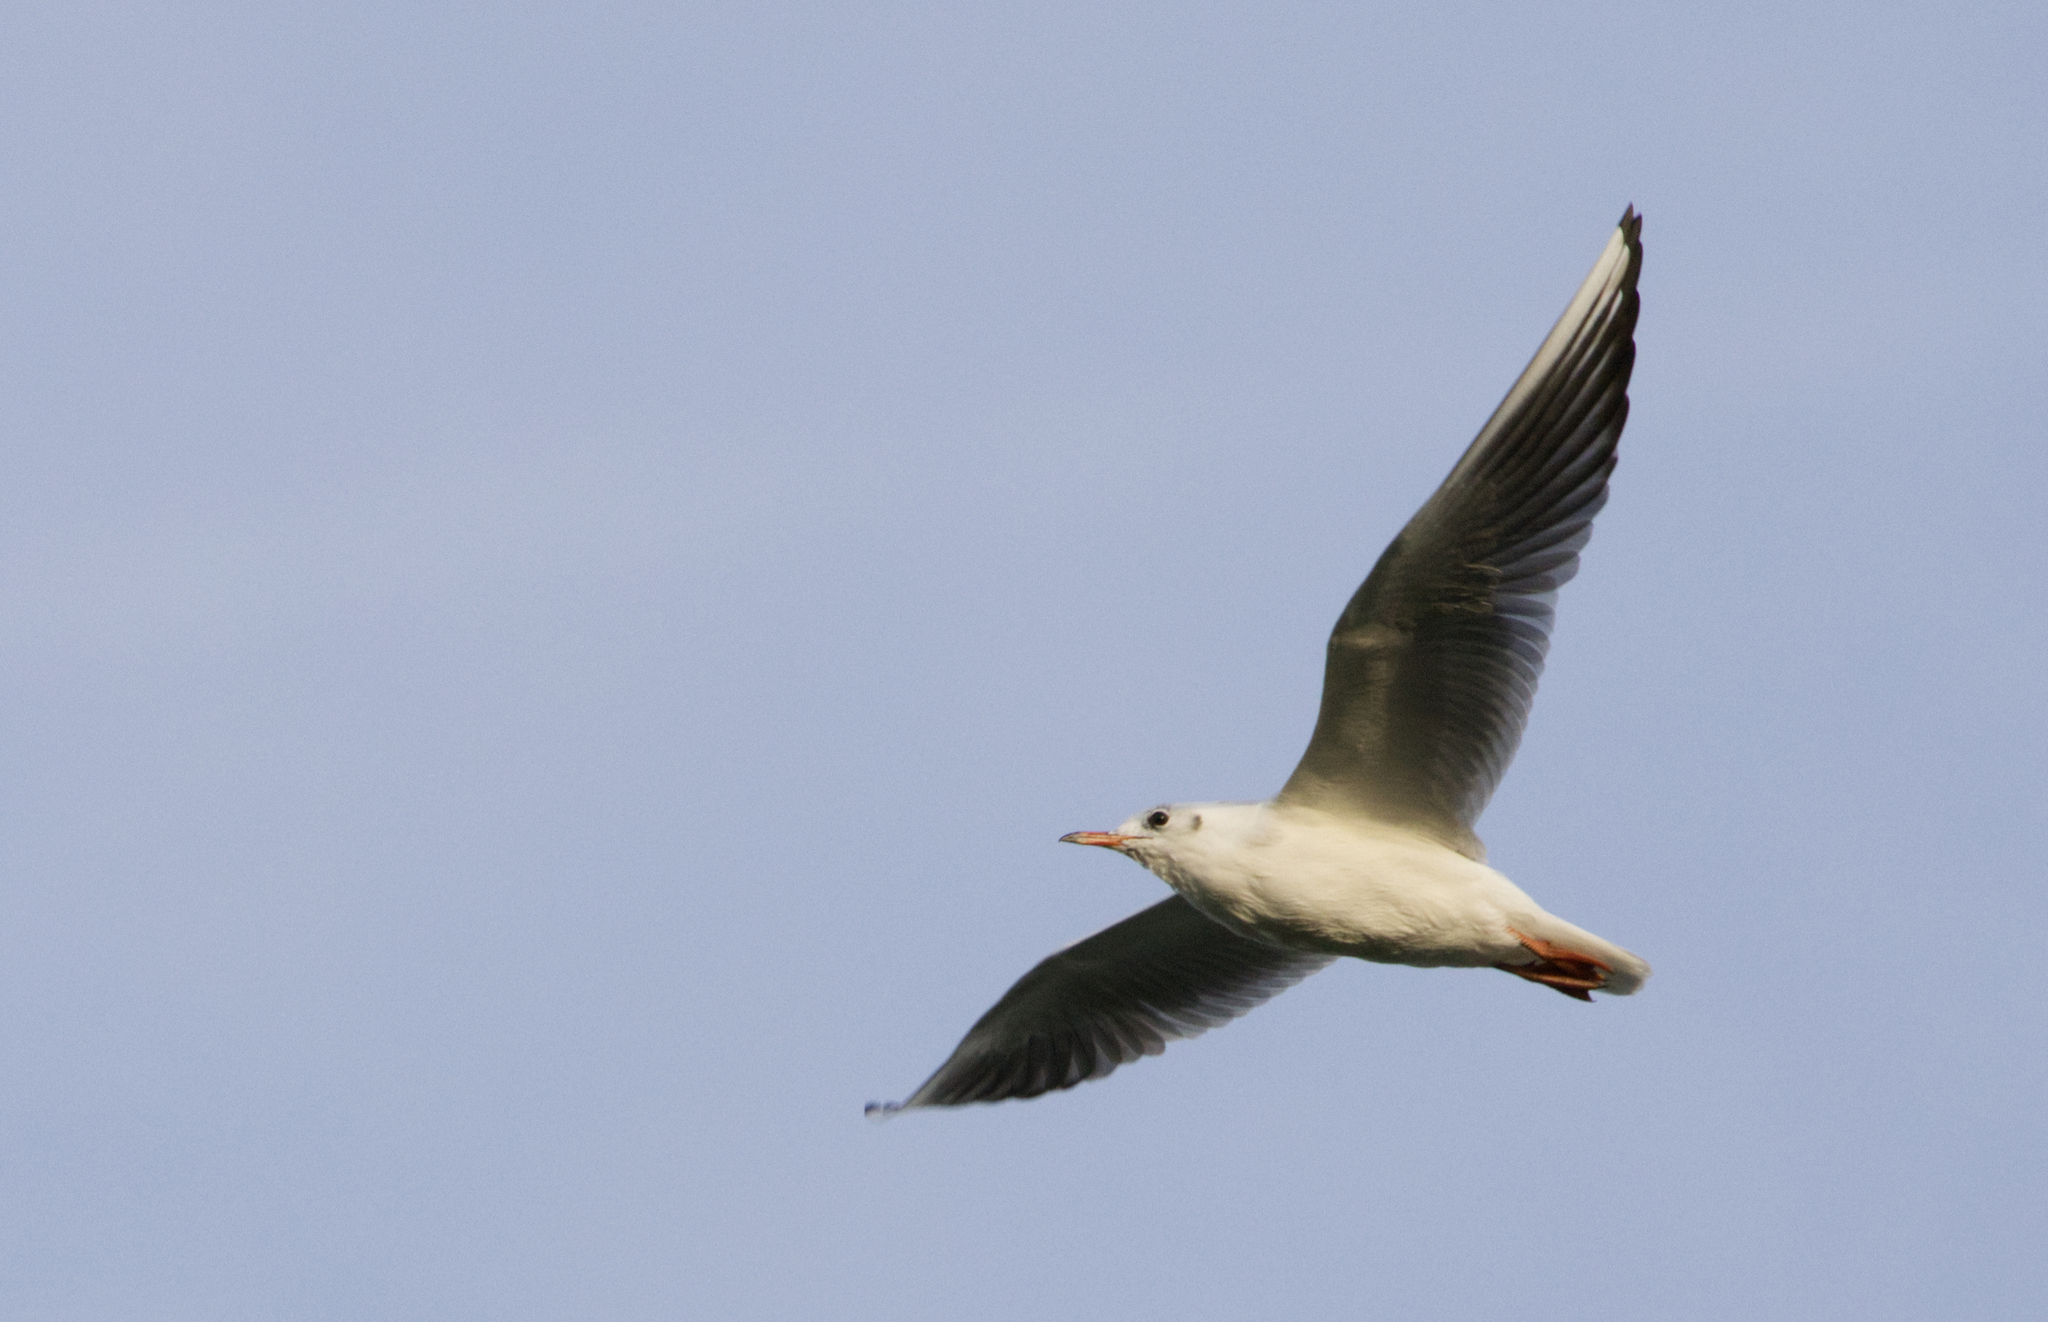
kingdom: Animalia
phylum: Chordata
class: Aves
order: Charadriiformes
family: Laridae
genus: Chroicocephalus
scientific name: Chroicocephalus ridibundus
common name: Black-headed gull
